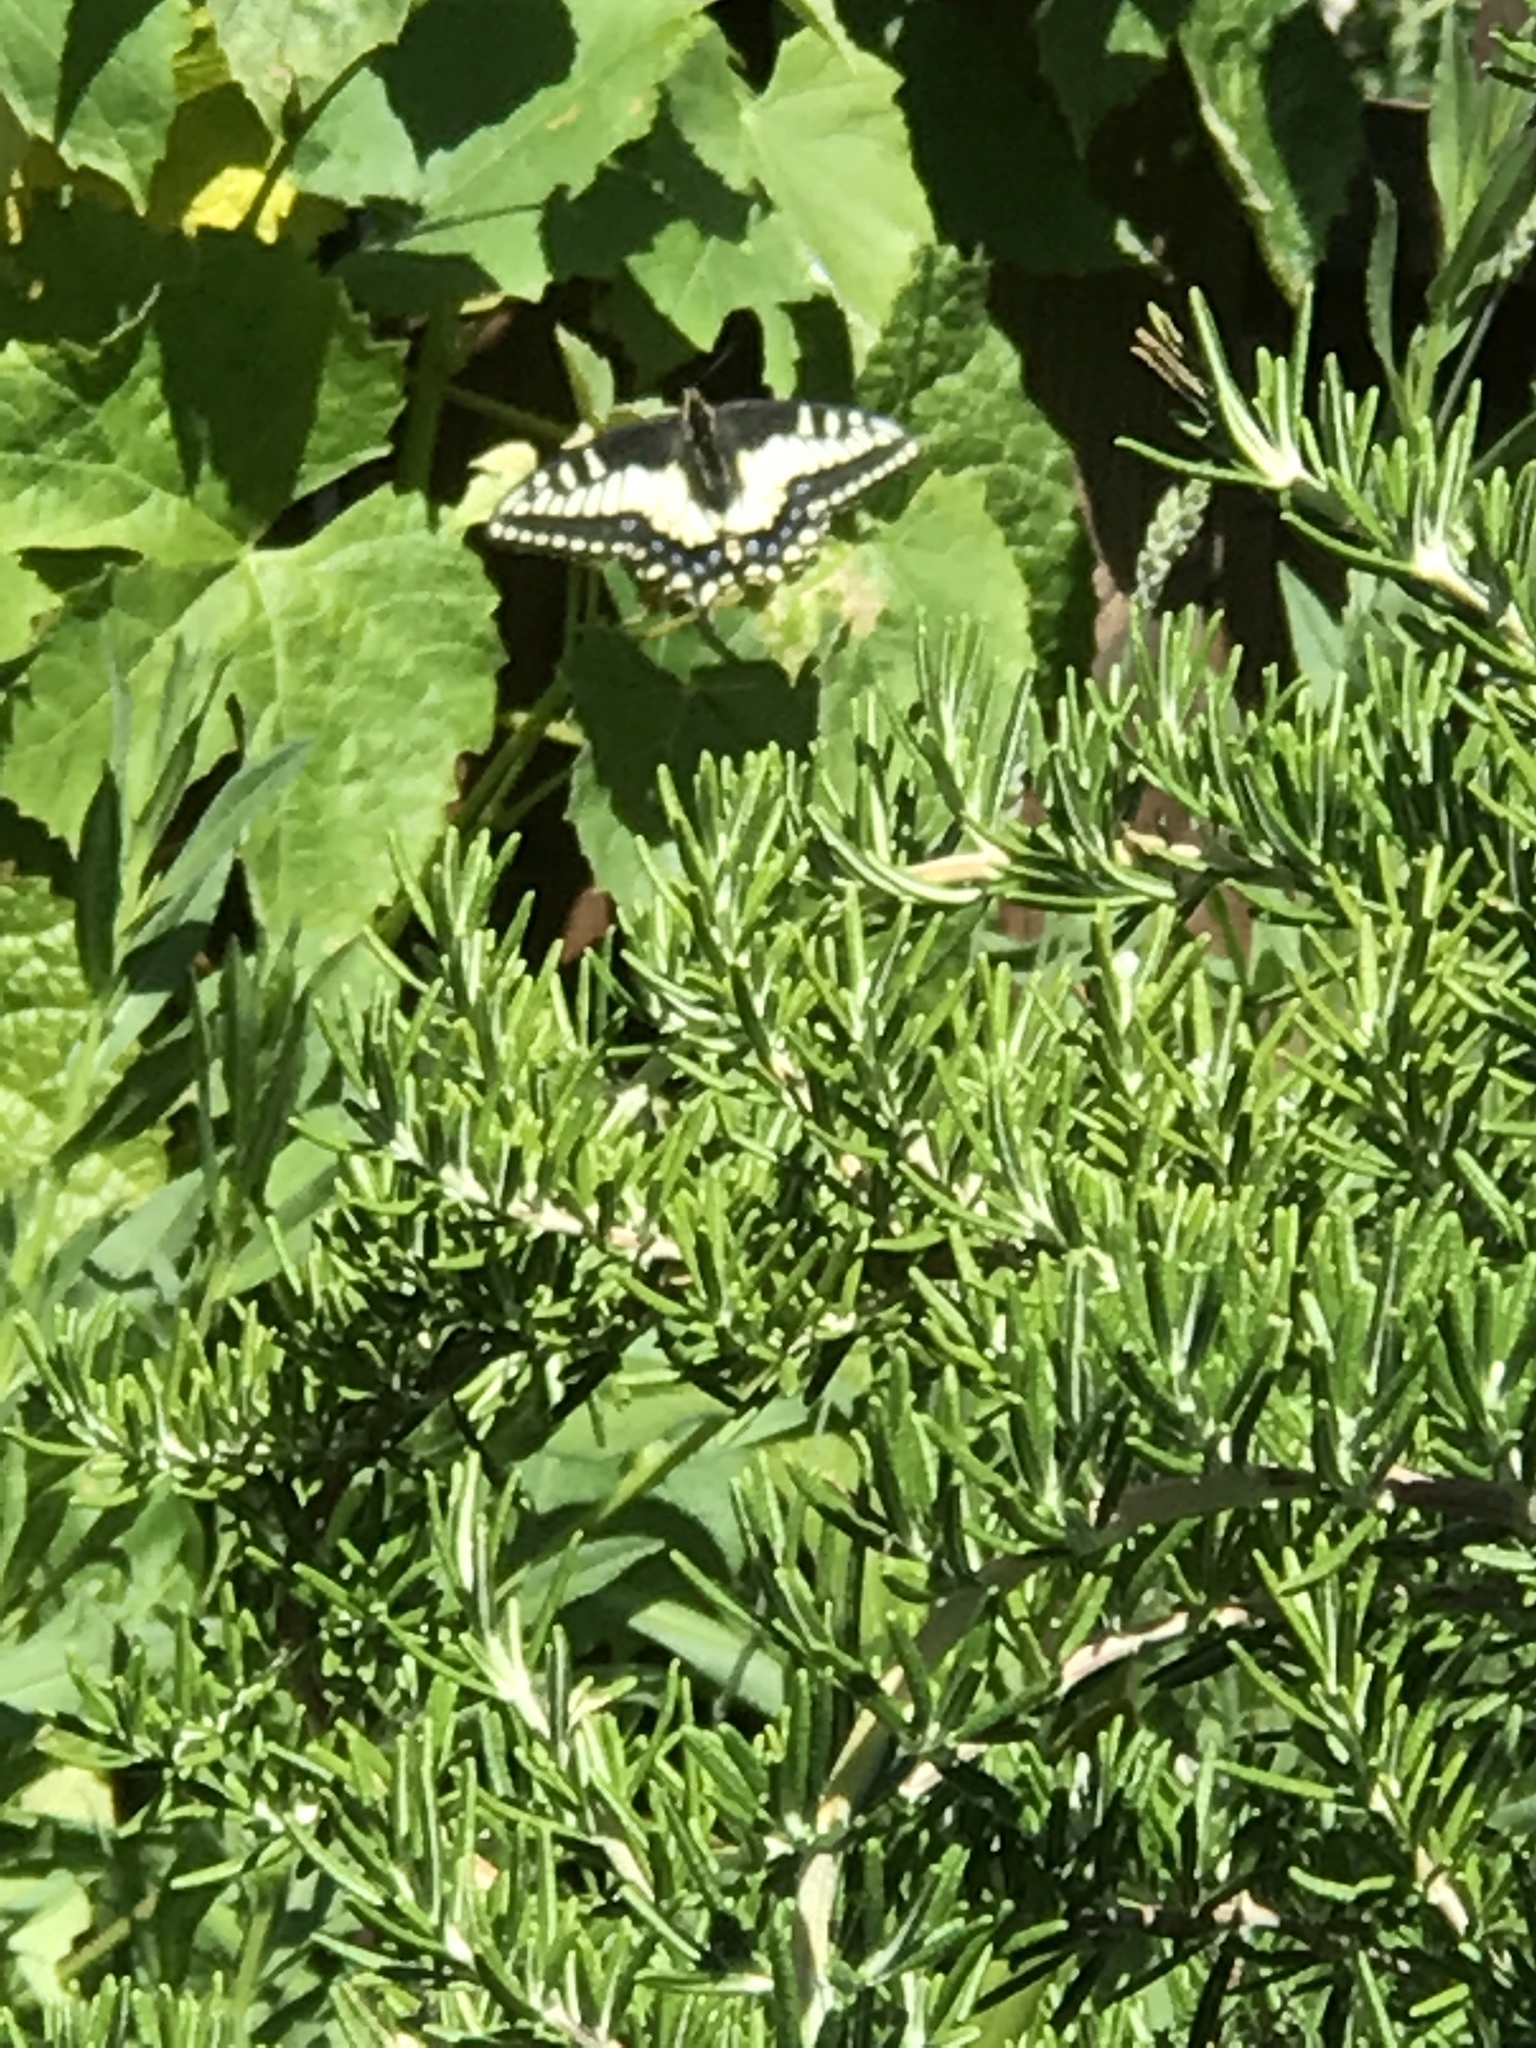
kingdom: Animalia
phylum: Arthropoda
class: Insecta
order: Lepidoptera
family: Papilionidae
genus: Papilio
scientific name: Papilio zelicaon
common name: Anise swallowtail
